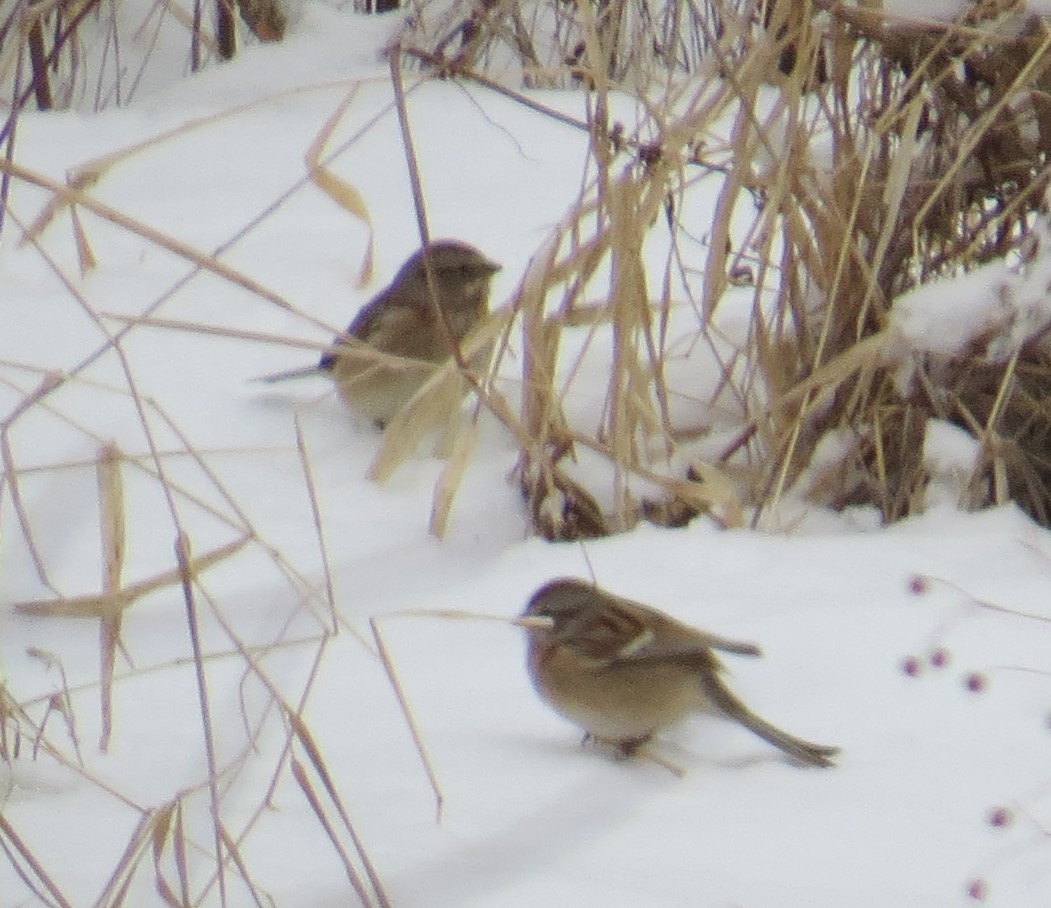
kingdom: Animalia
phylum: Chordata
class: Aves
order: Passeriformes
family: Passerellidae
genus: Spizelloides
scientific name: Spizelloides arborea
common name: American tree sparrow
